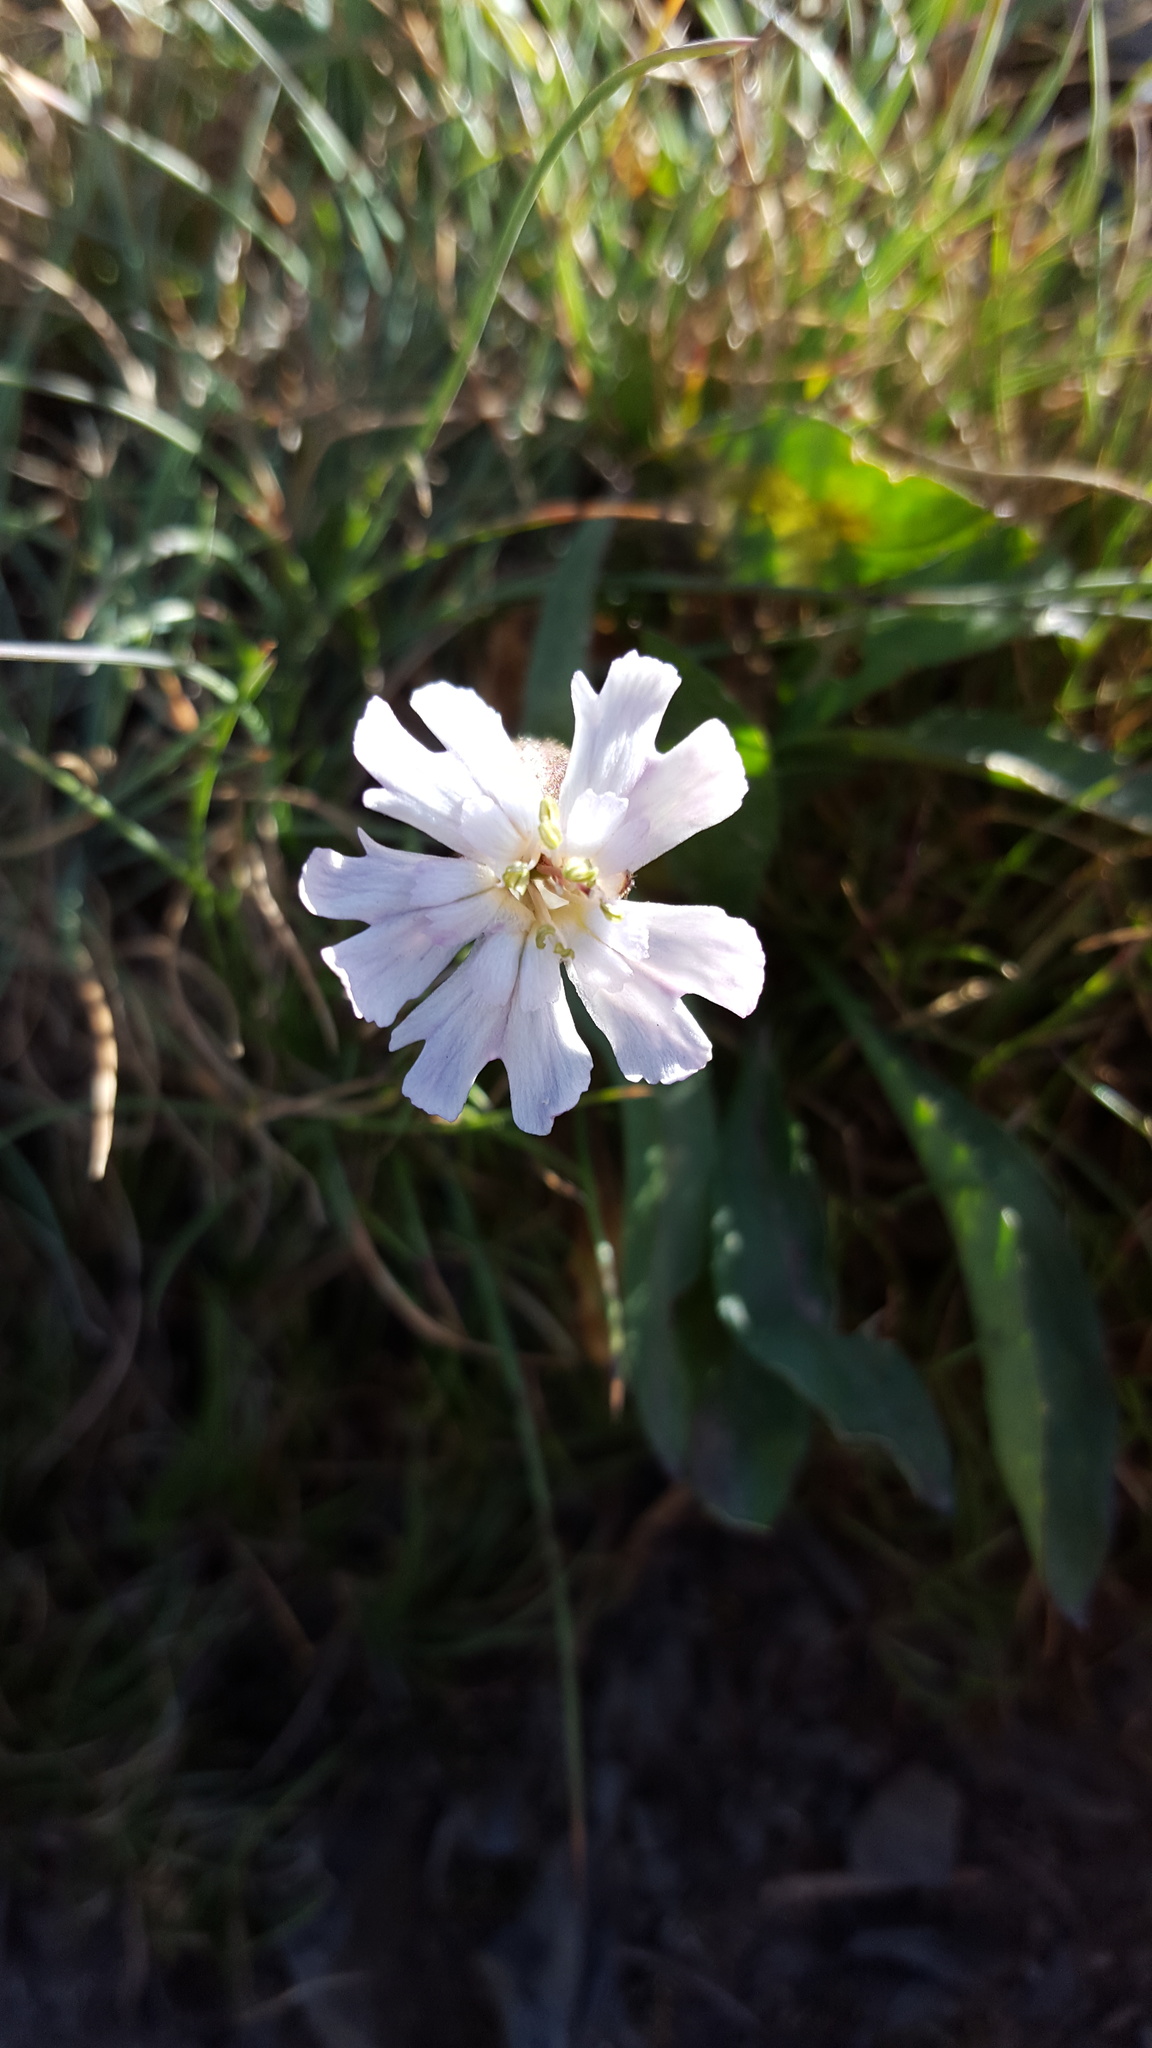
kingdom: Plantae
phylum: Tracheophyta
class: Magnoliopsida
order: Caryophyllales
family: Caryophyllaceae
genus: Silene
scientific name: Silene parryi
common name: Parry's campion
